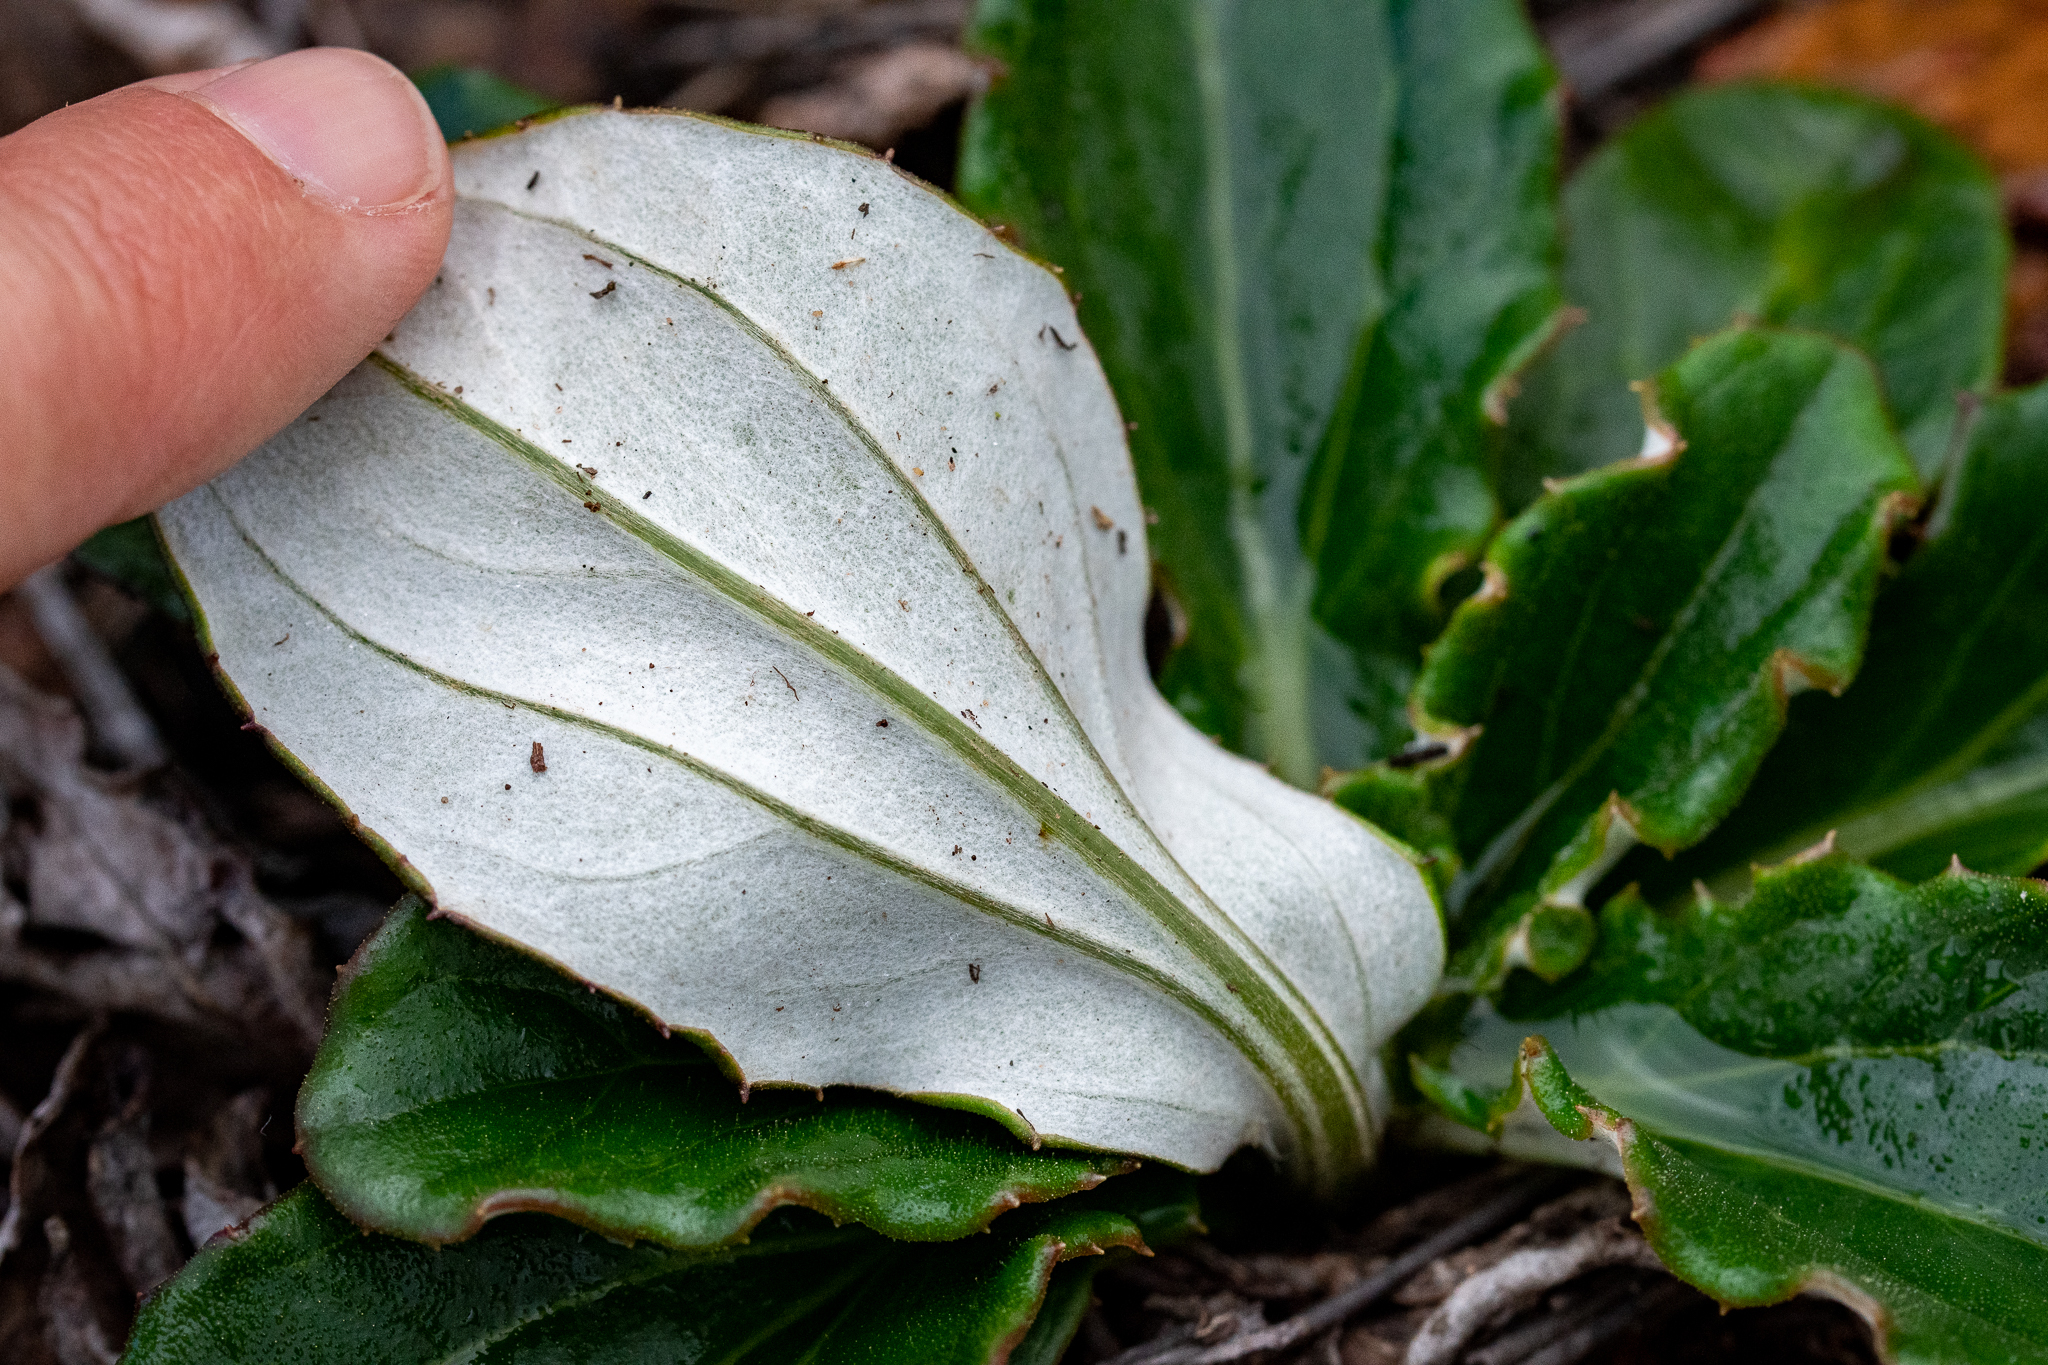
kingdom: Plantae
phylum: Tracheophyta
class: Magnoliopsida
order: Asterales
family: Asteraceae
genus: Berkheya
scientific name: Berkheya herbacea
